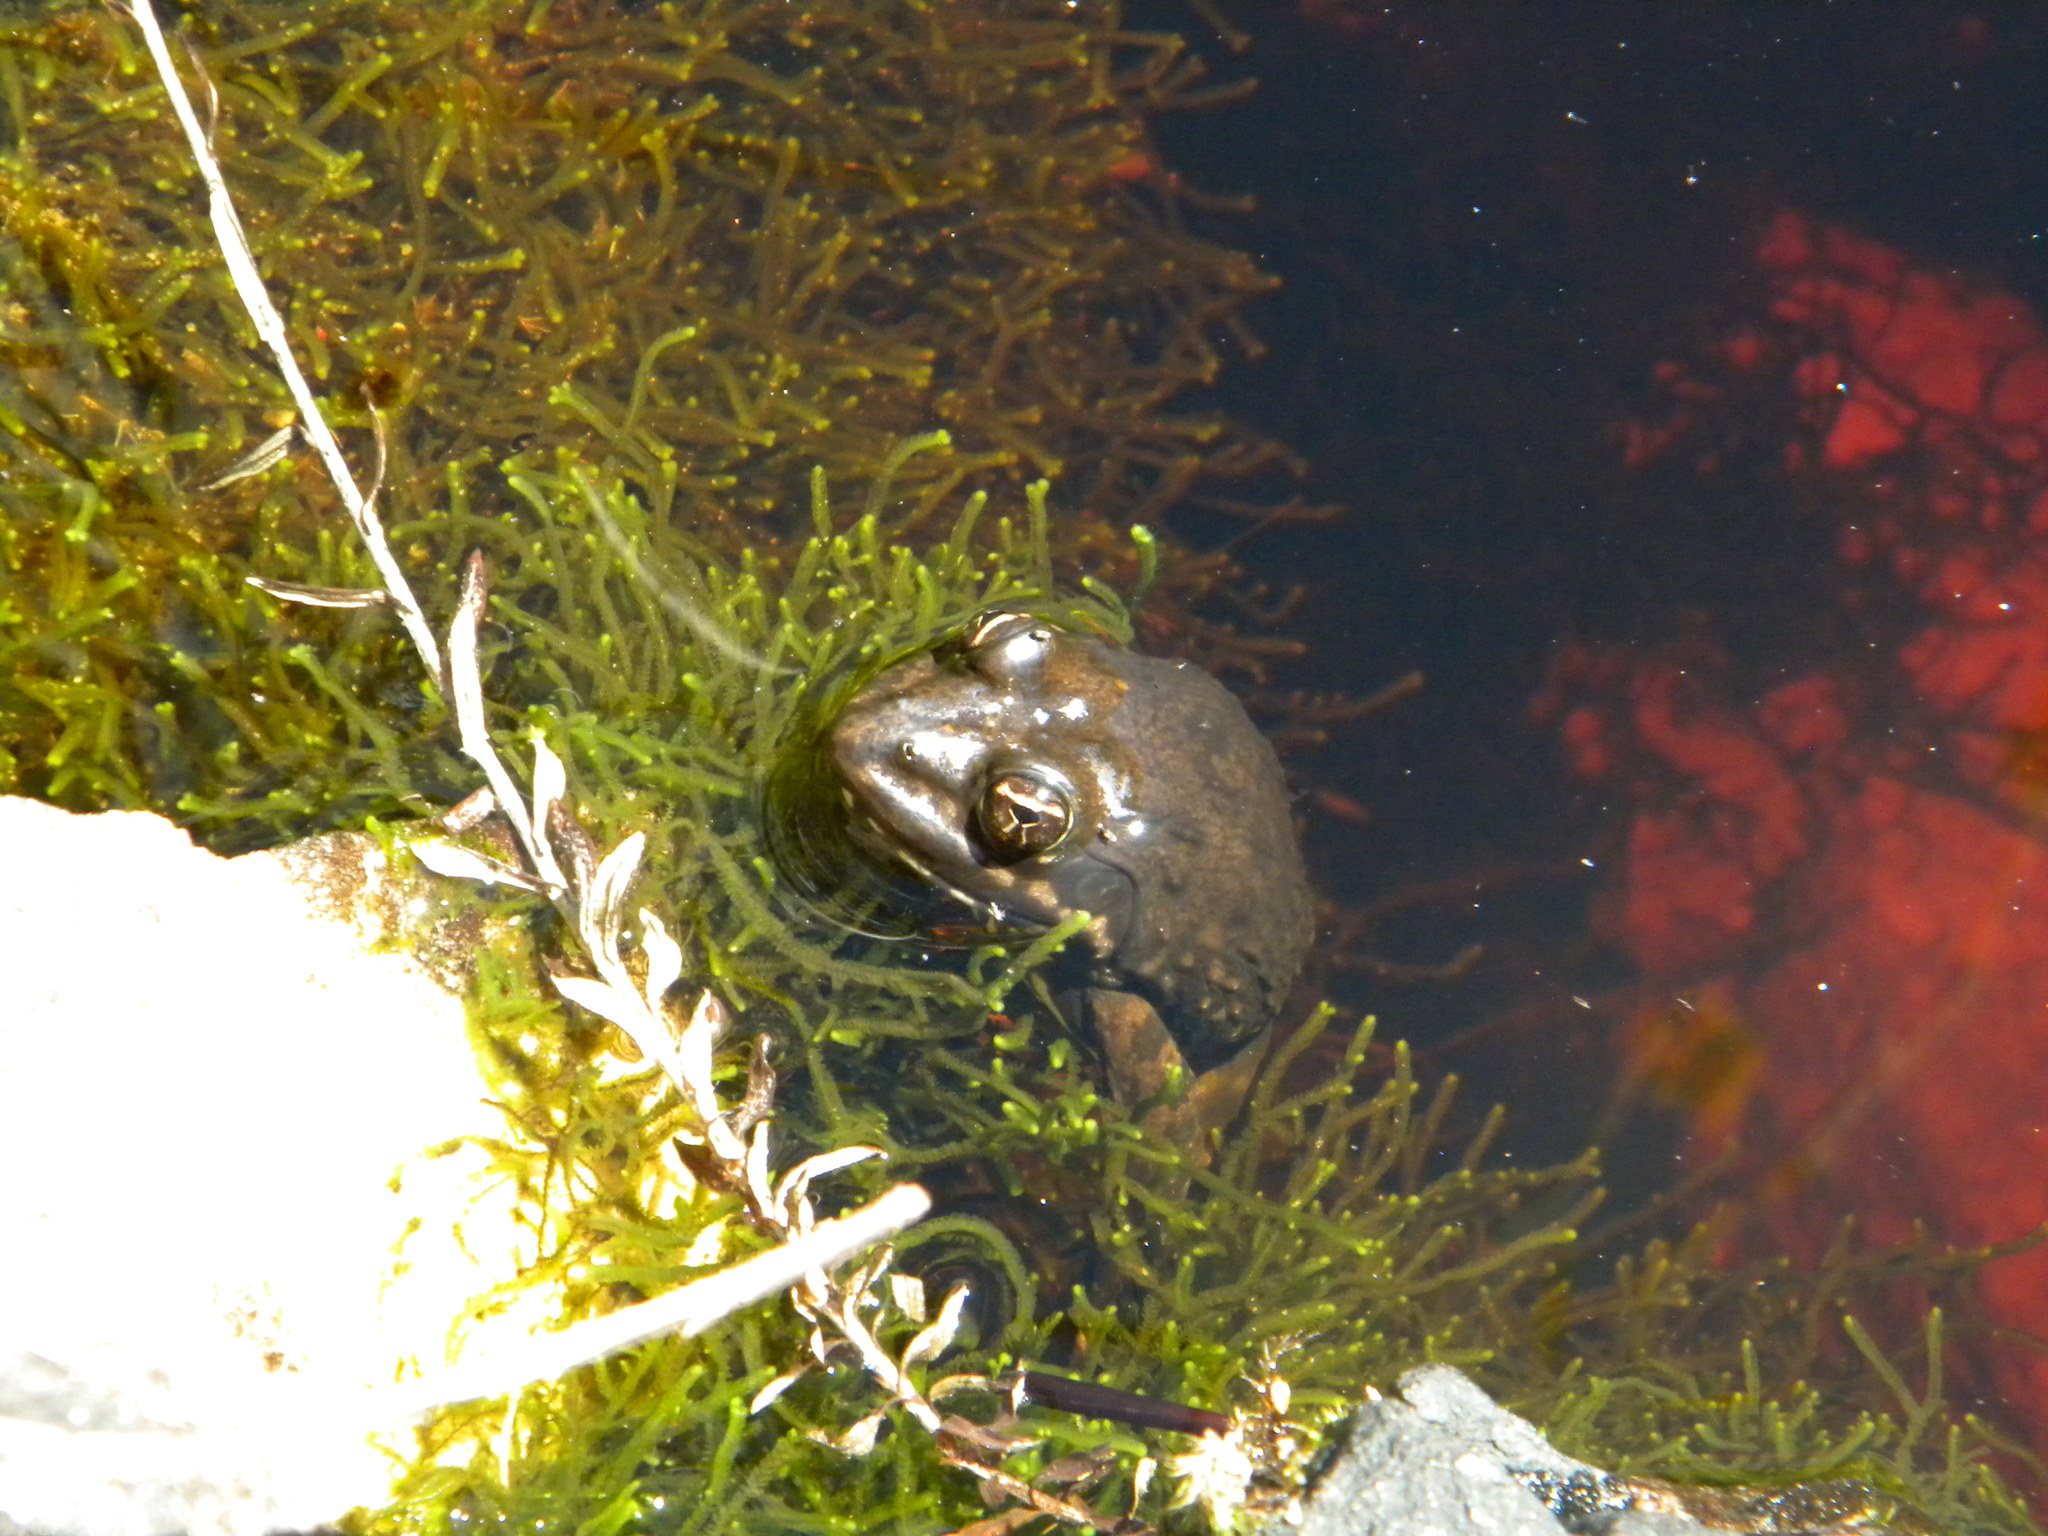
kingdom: Animalia
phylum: Chordata
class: Amphibia
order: Anura
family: Pyxicephalidae
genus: Amietia
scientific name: Amietia fuscigula
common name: Cape rana
